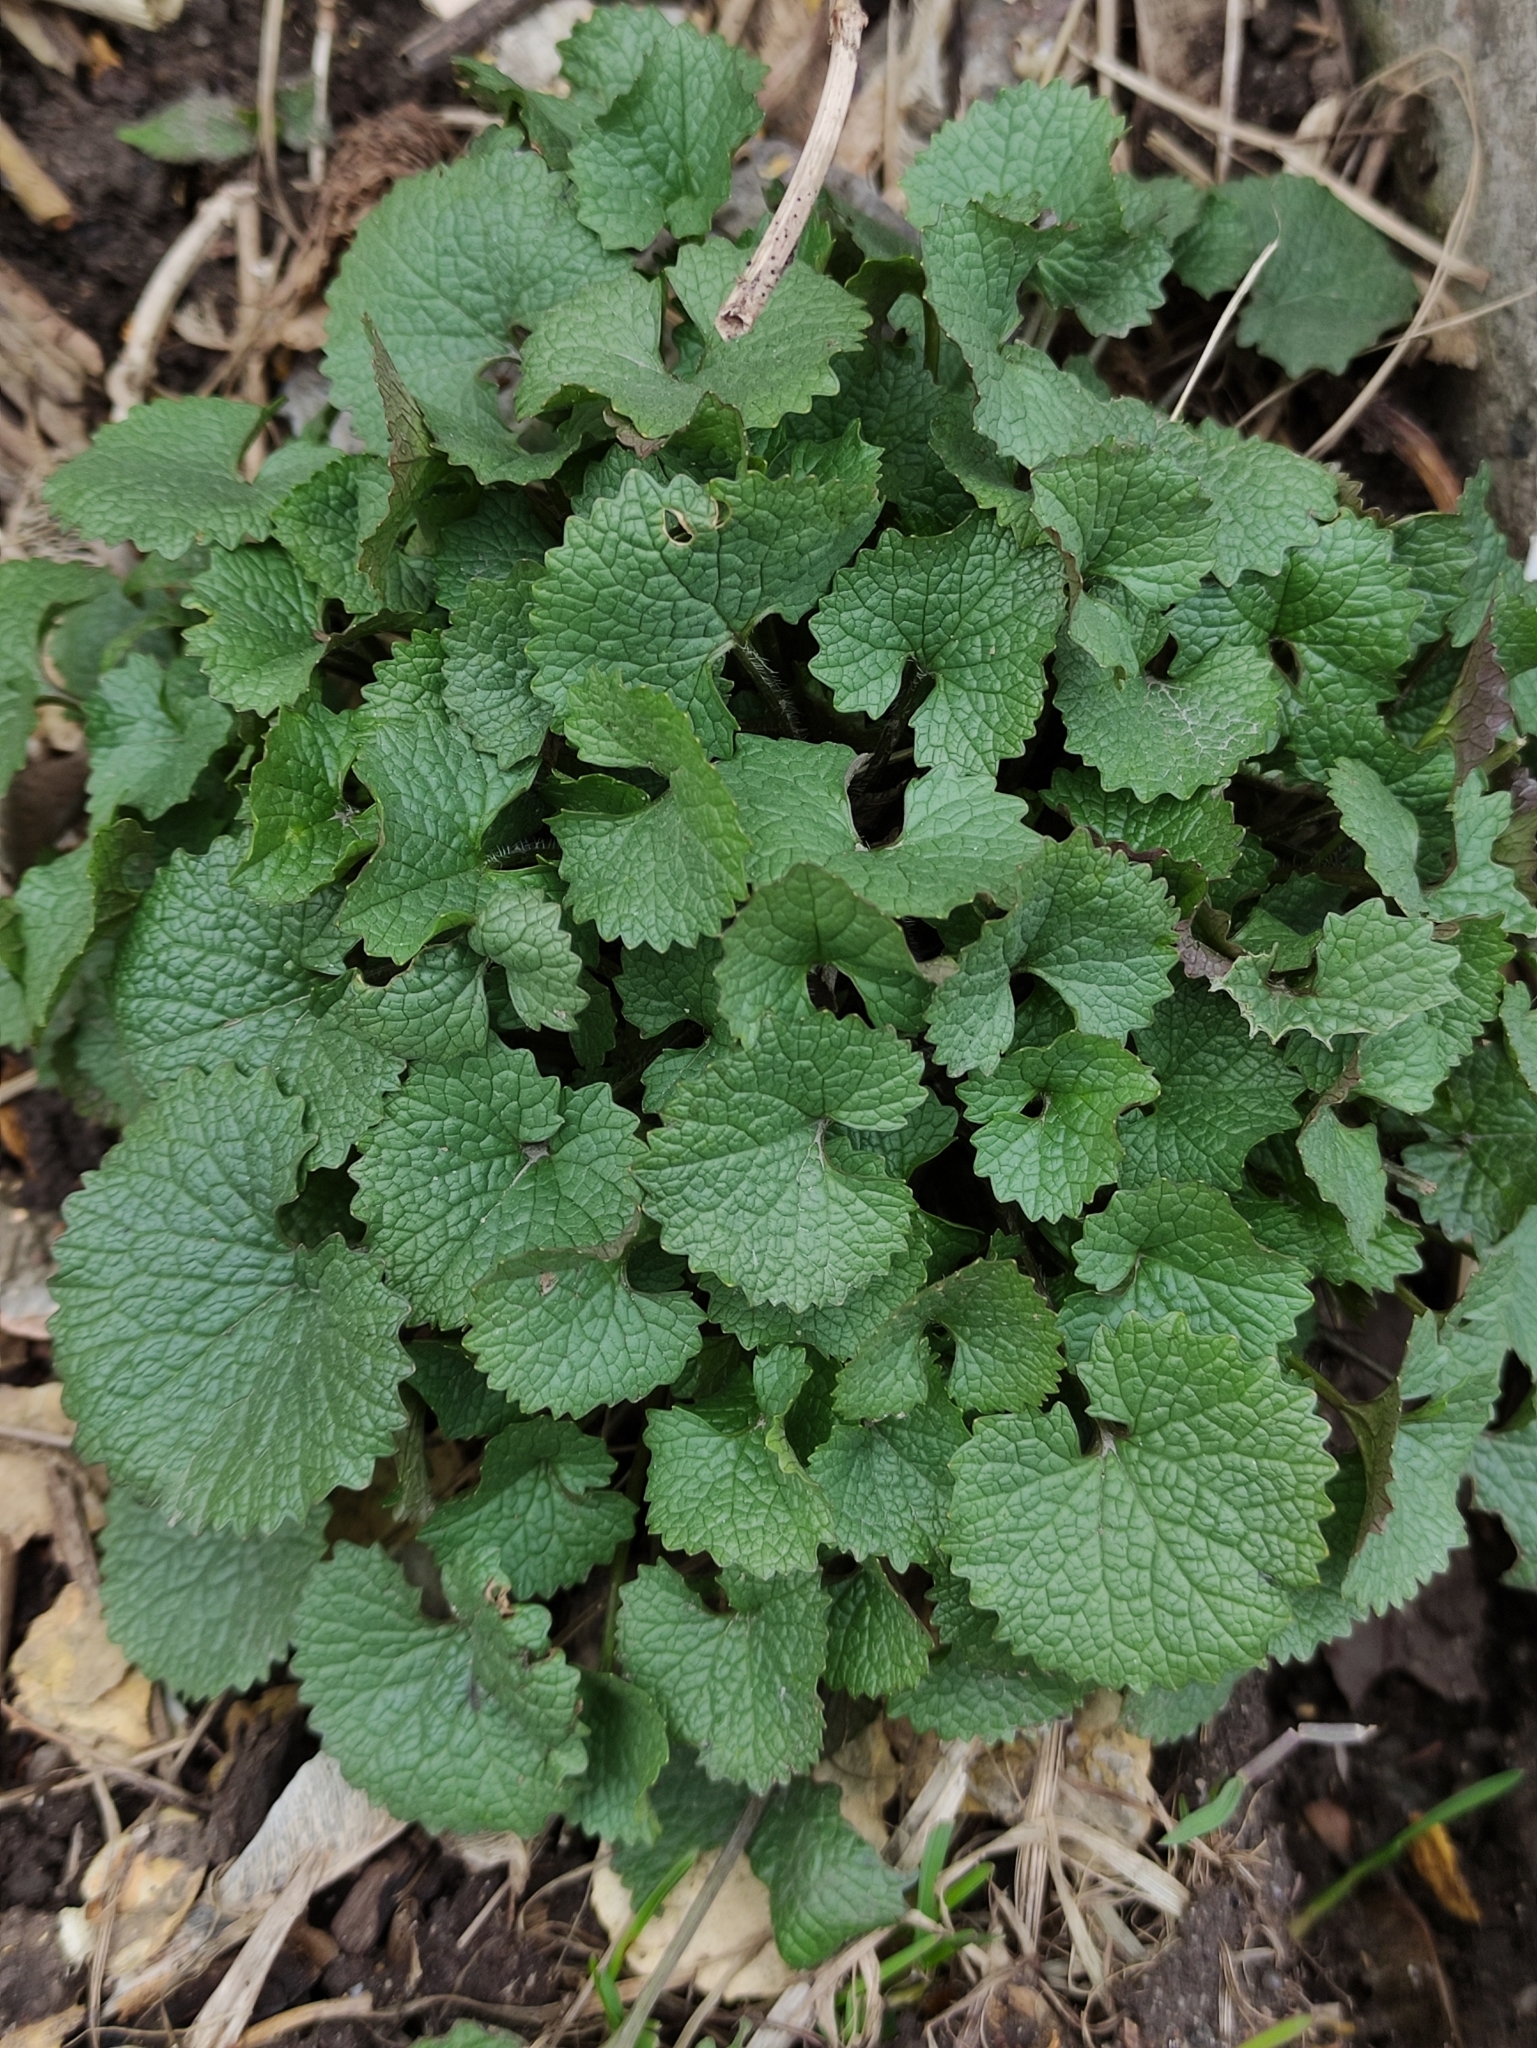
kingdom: Plantae
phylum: Tracheophyta
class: Magnoliopsida
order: Brassicales
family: Brassicaceae
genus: Alliaria
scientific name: Alliaria petiolata
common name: Garlic mustard
